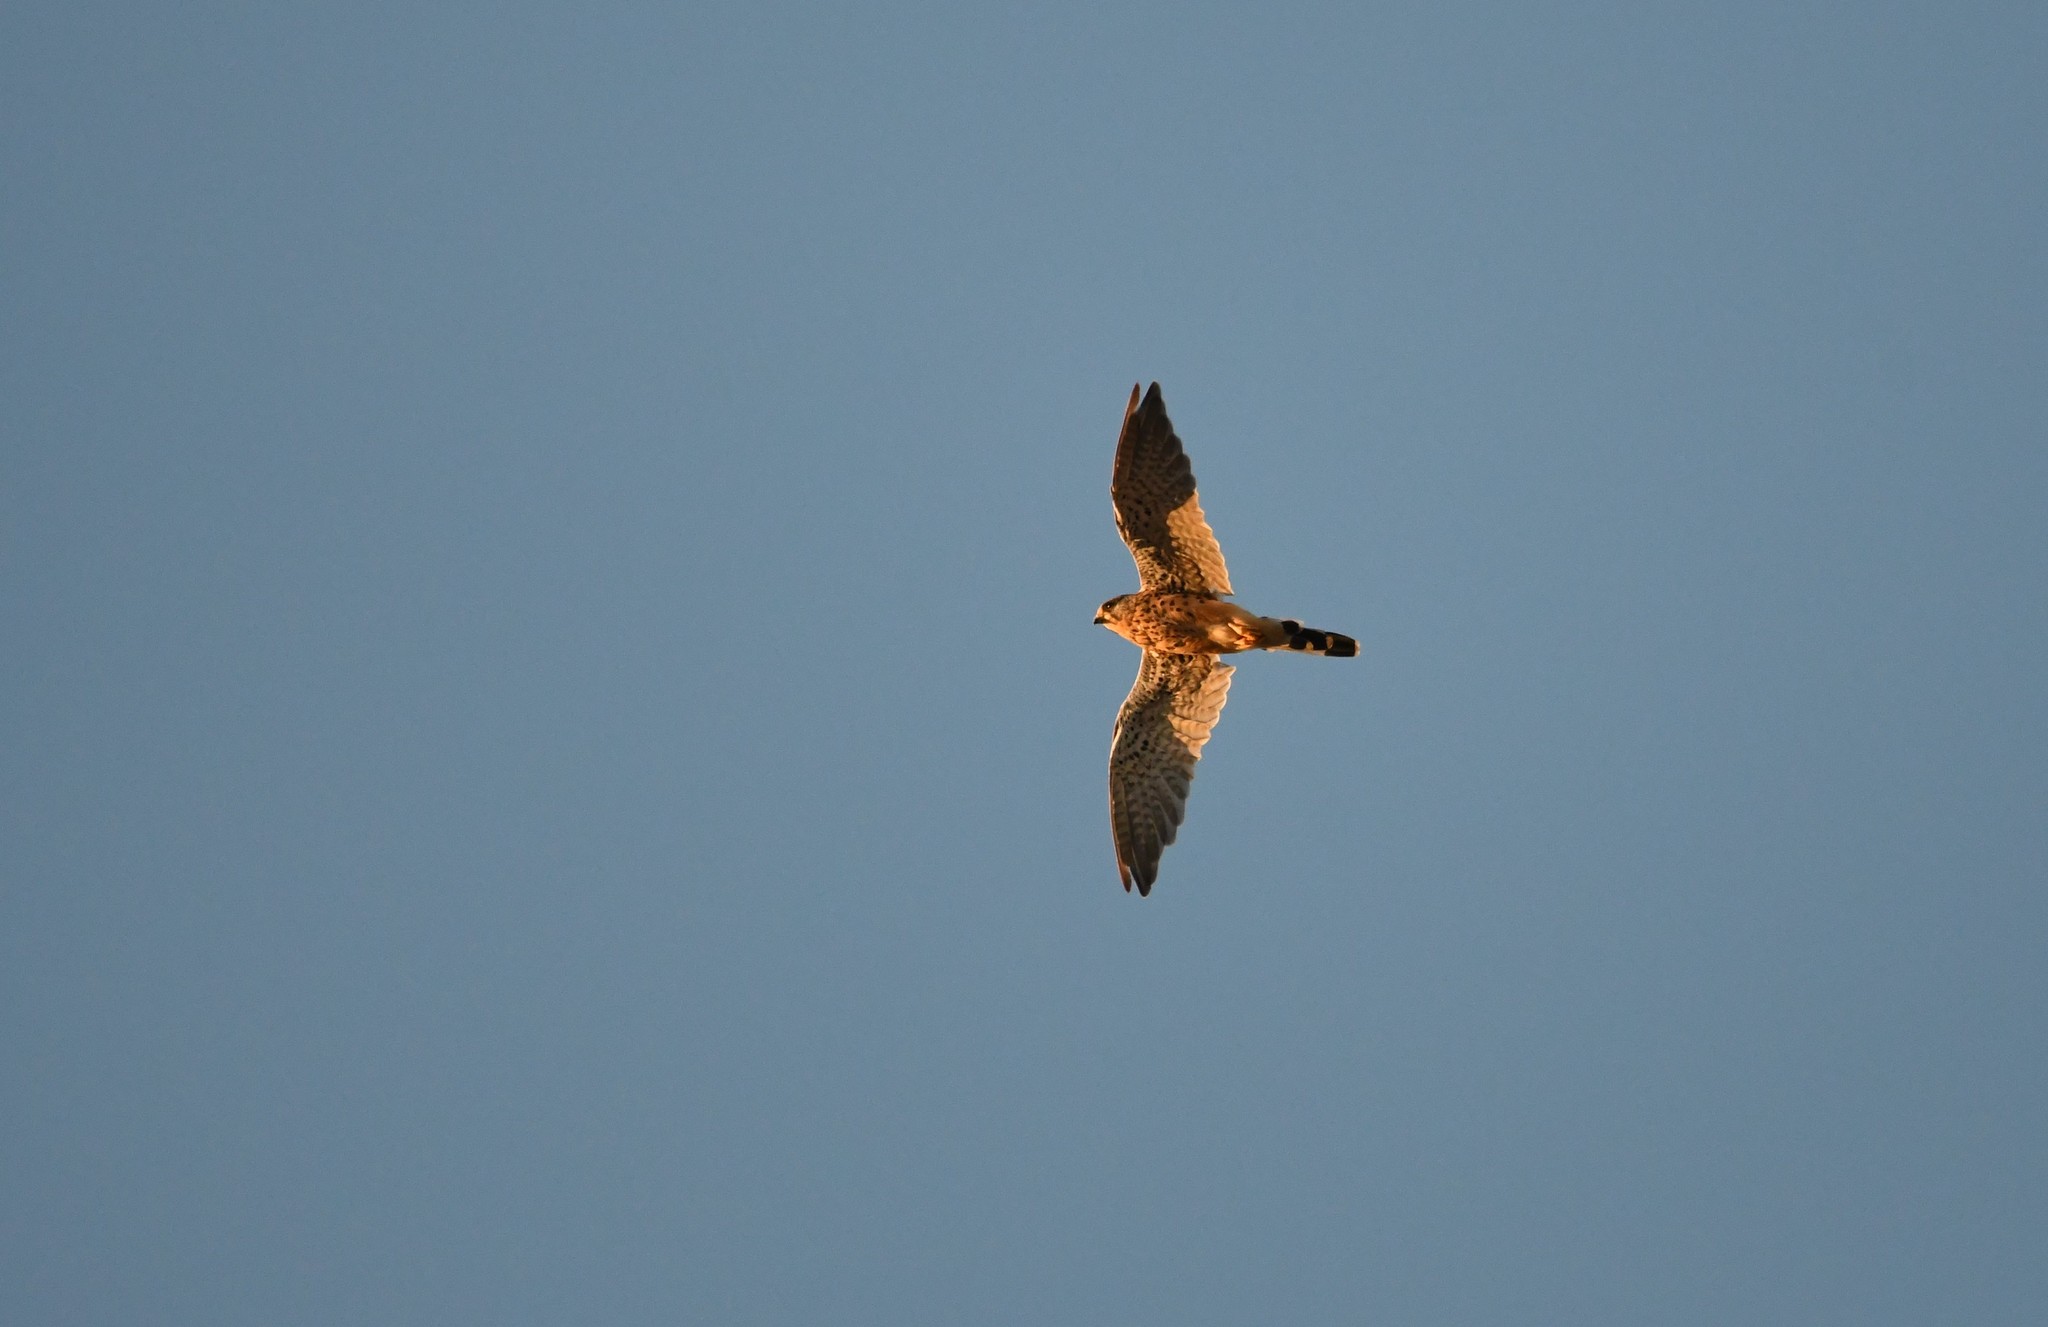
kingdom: Animalia
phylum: Chordata
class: Aves
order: Falconiformes
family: Falconidae
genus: Falco
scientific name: Falco tinnunculus
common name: Common kestrel
